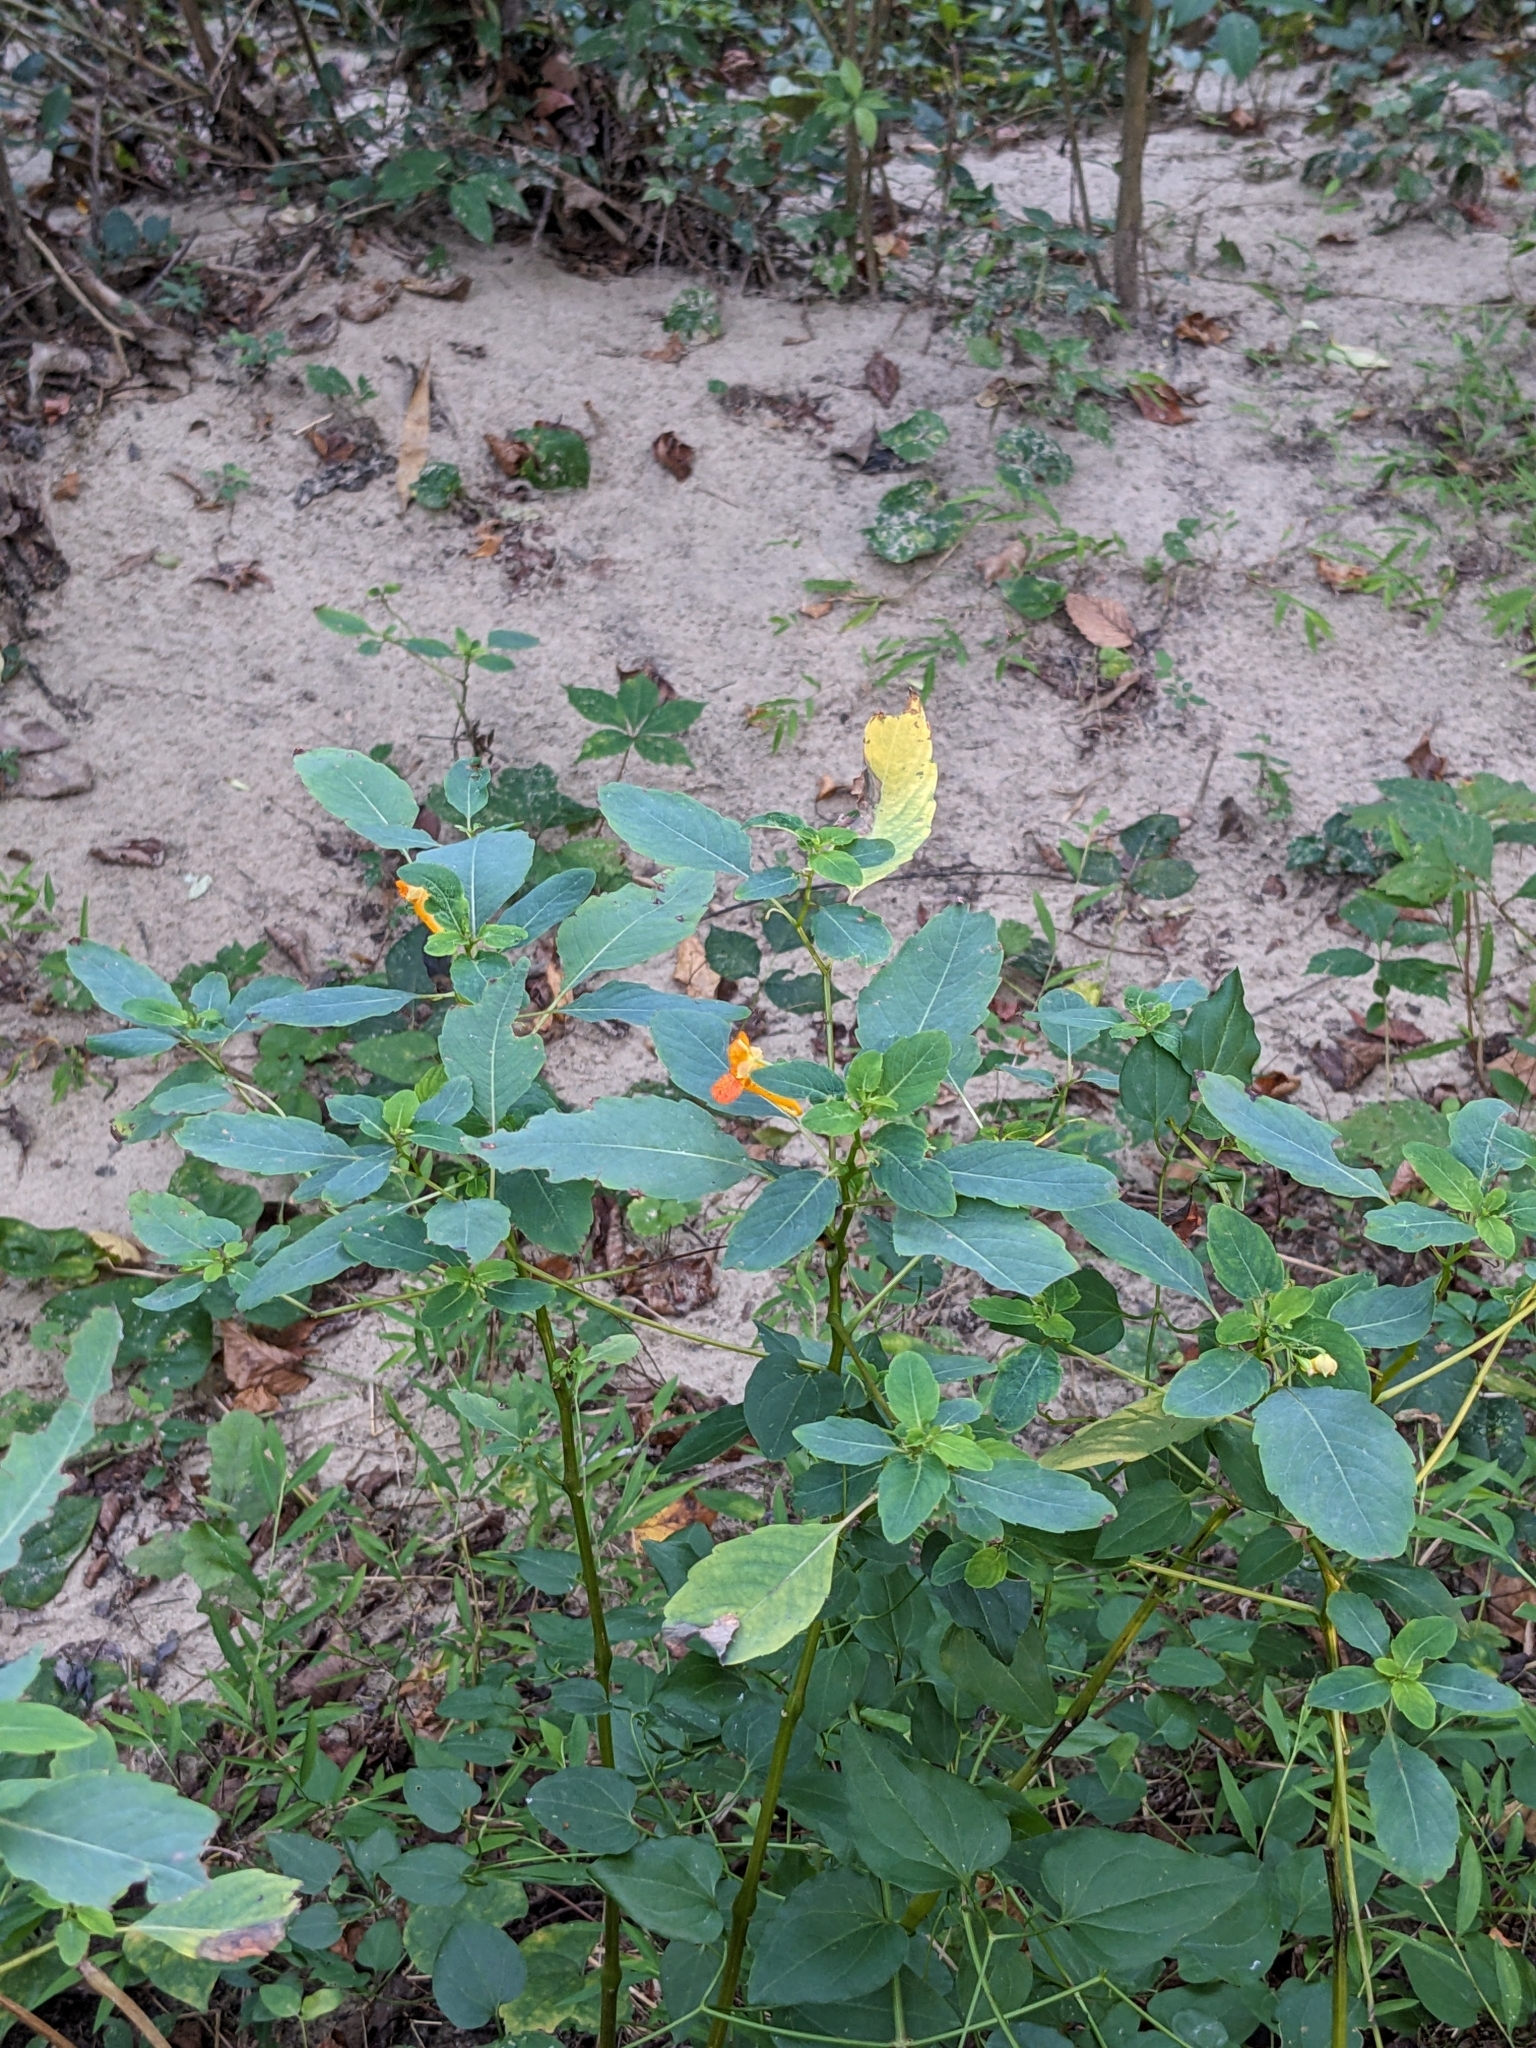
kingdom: Plantae
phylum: Tracheophyta
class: Magnoliopsida
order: Ericales
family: Balsaminaceae
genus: Impatiens
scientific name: Impatiens capensis
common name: Orange balsam
